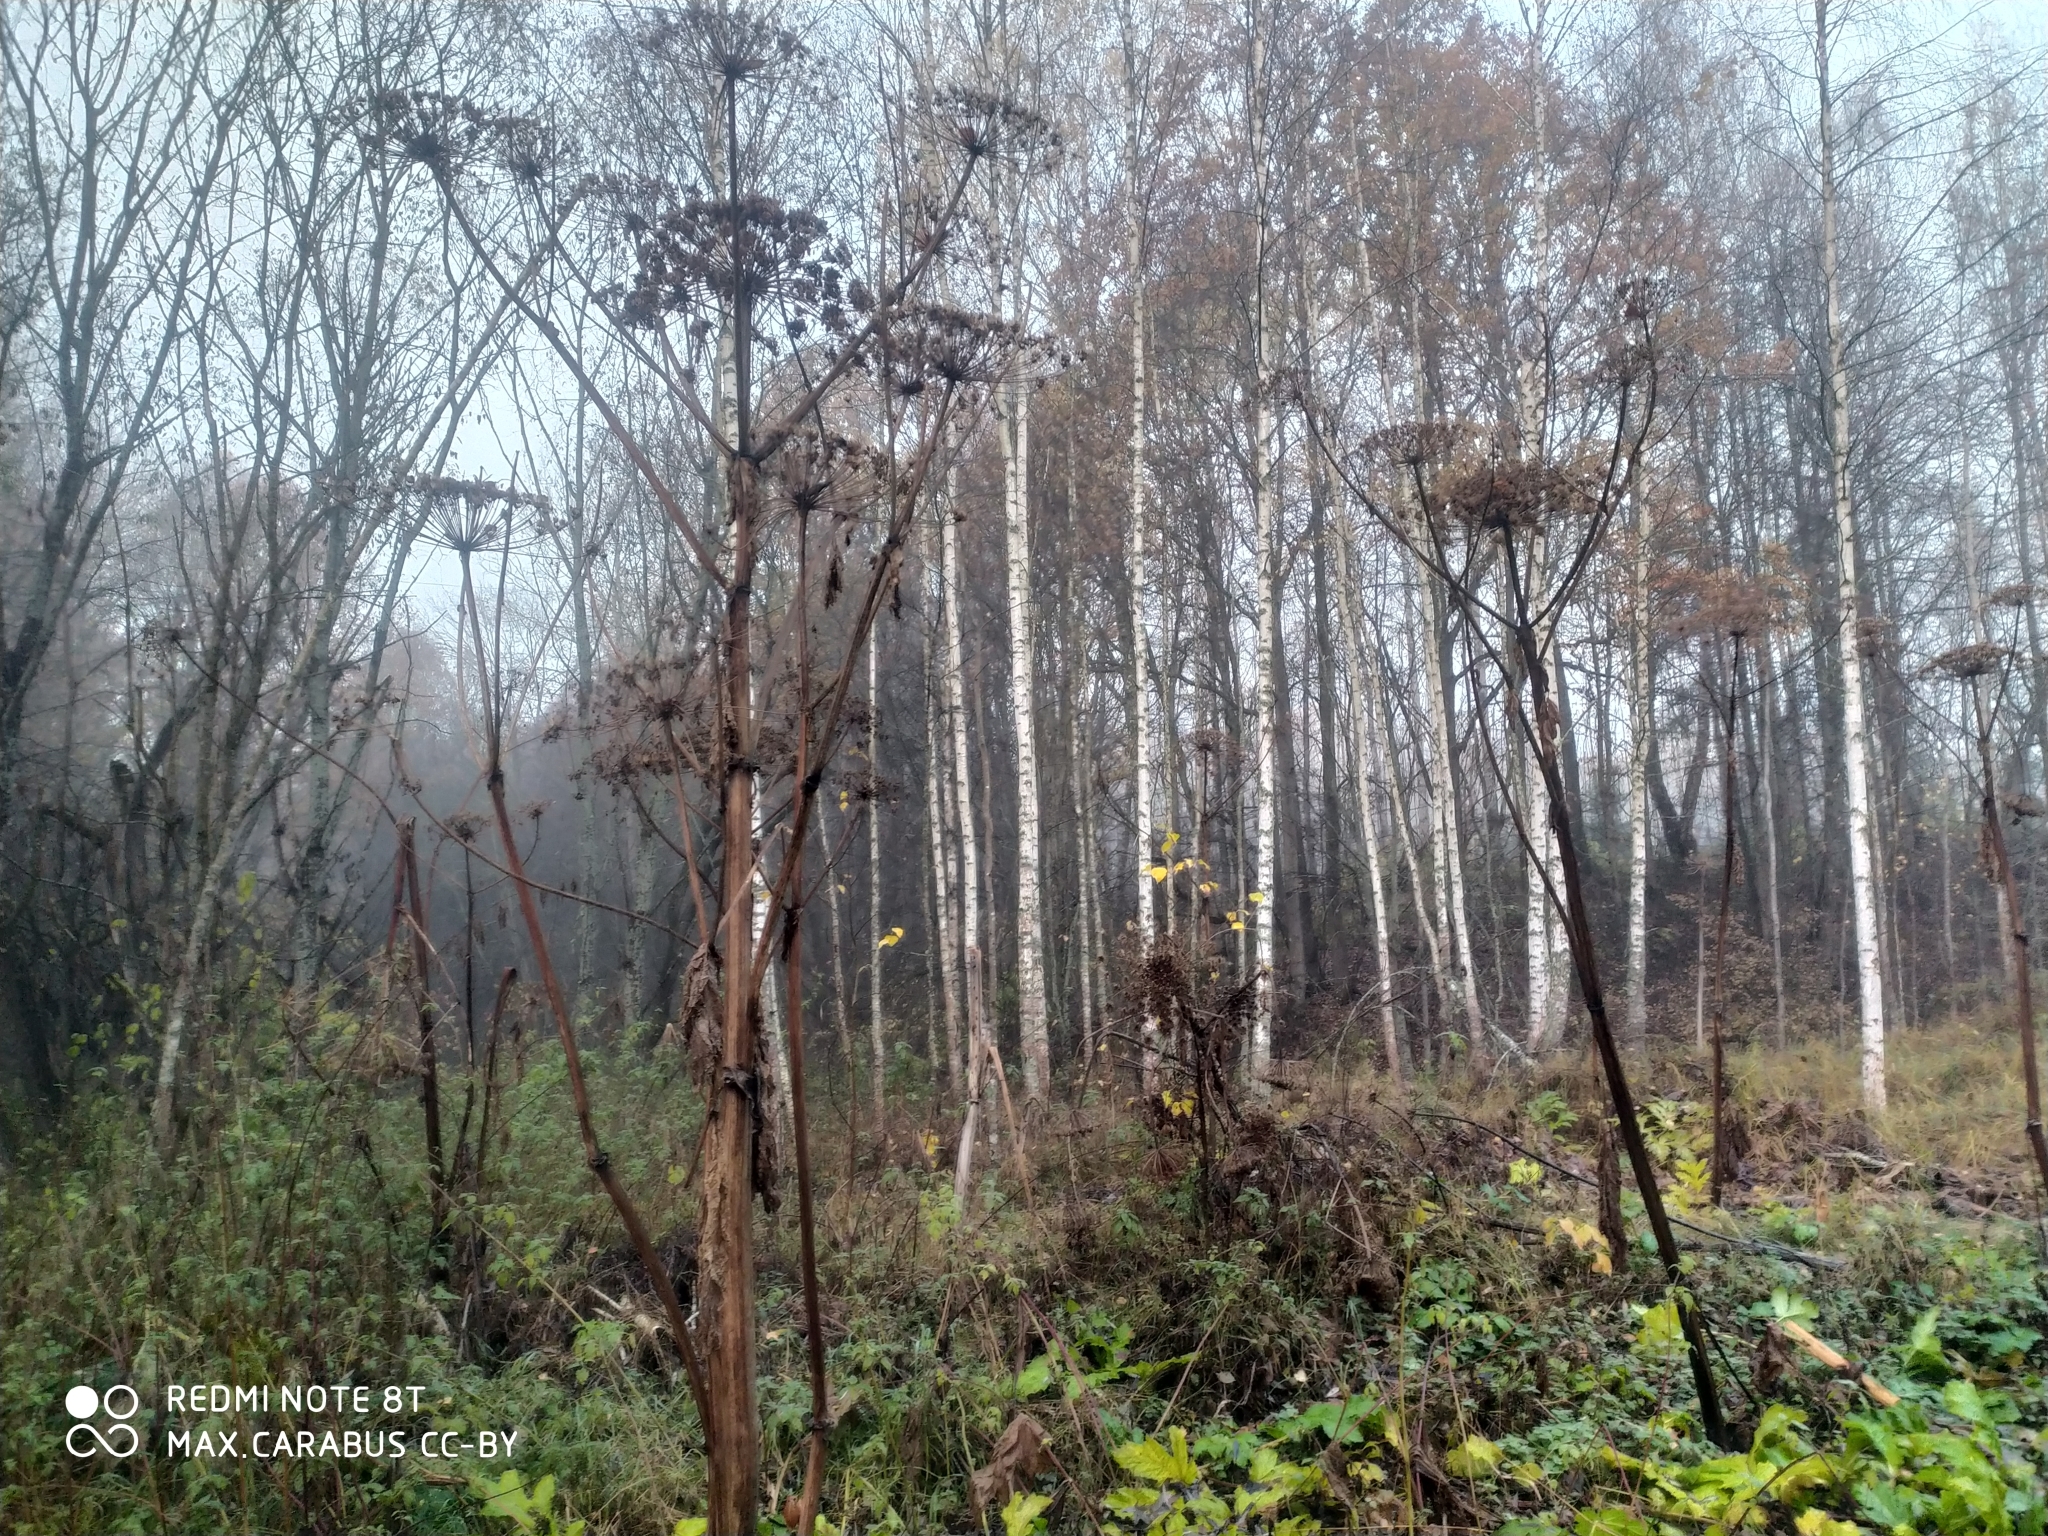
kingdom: Plantae
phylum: Tracheophyta
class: Magnoliopsida
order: Apiales
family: Apiaceae
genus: Heracleum
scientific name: Heracleum sosnowskyi
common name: Sosnowsky's hogweed
